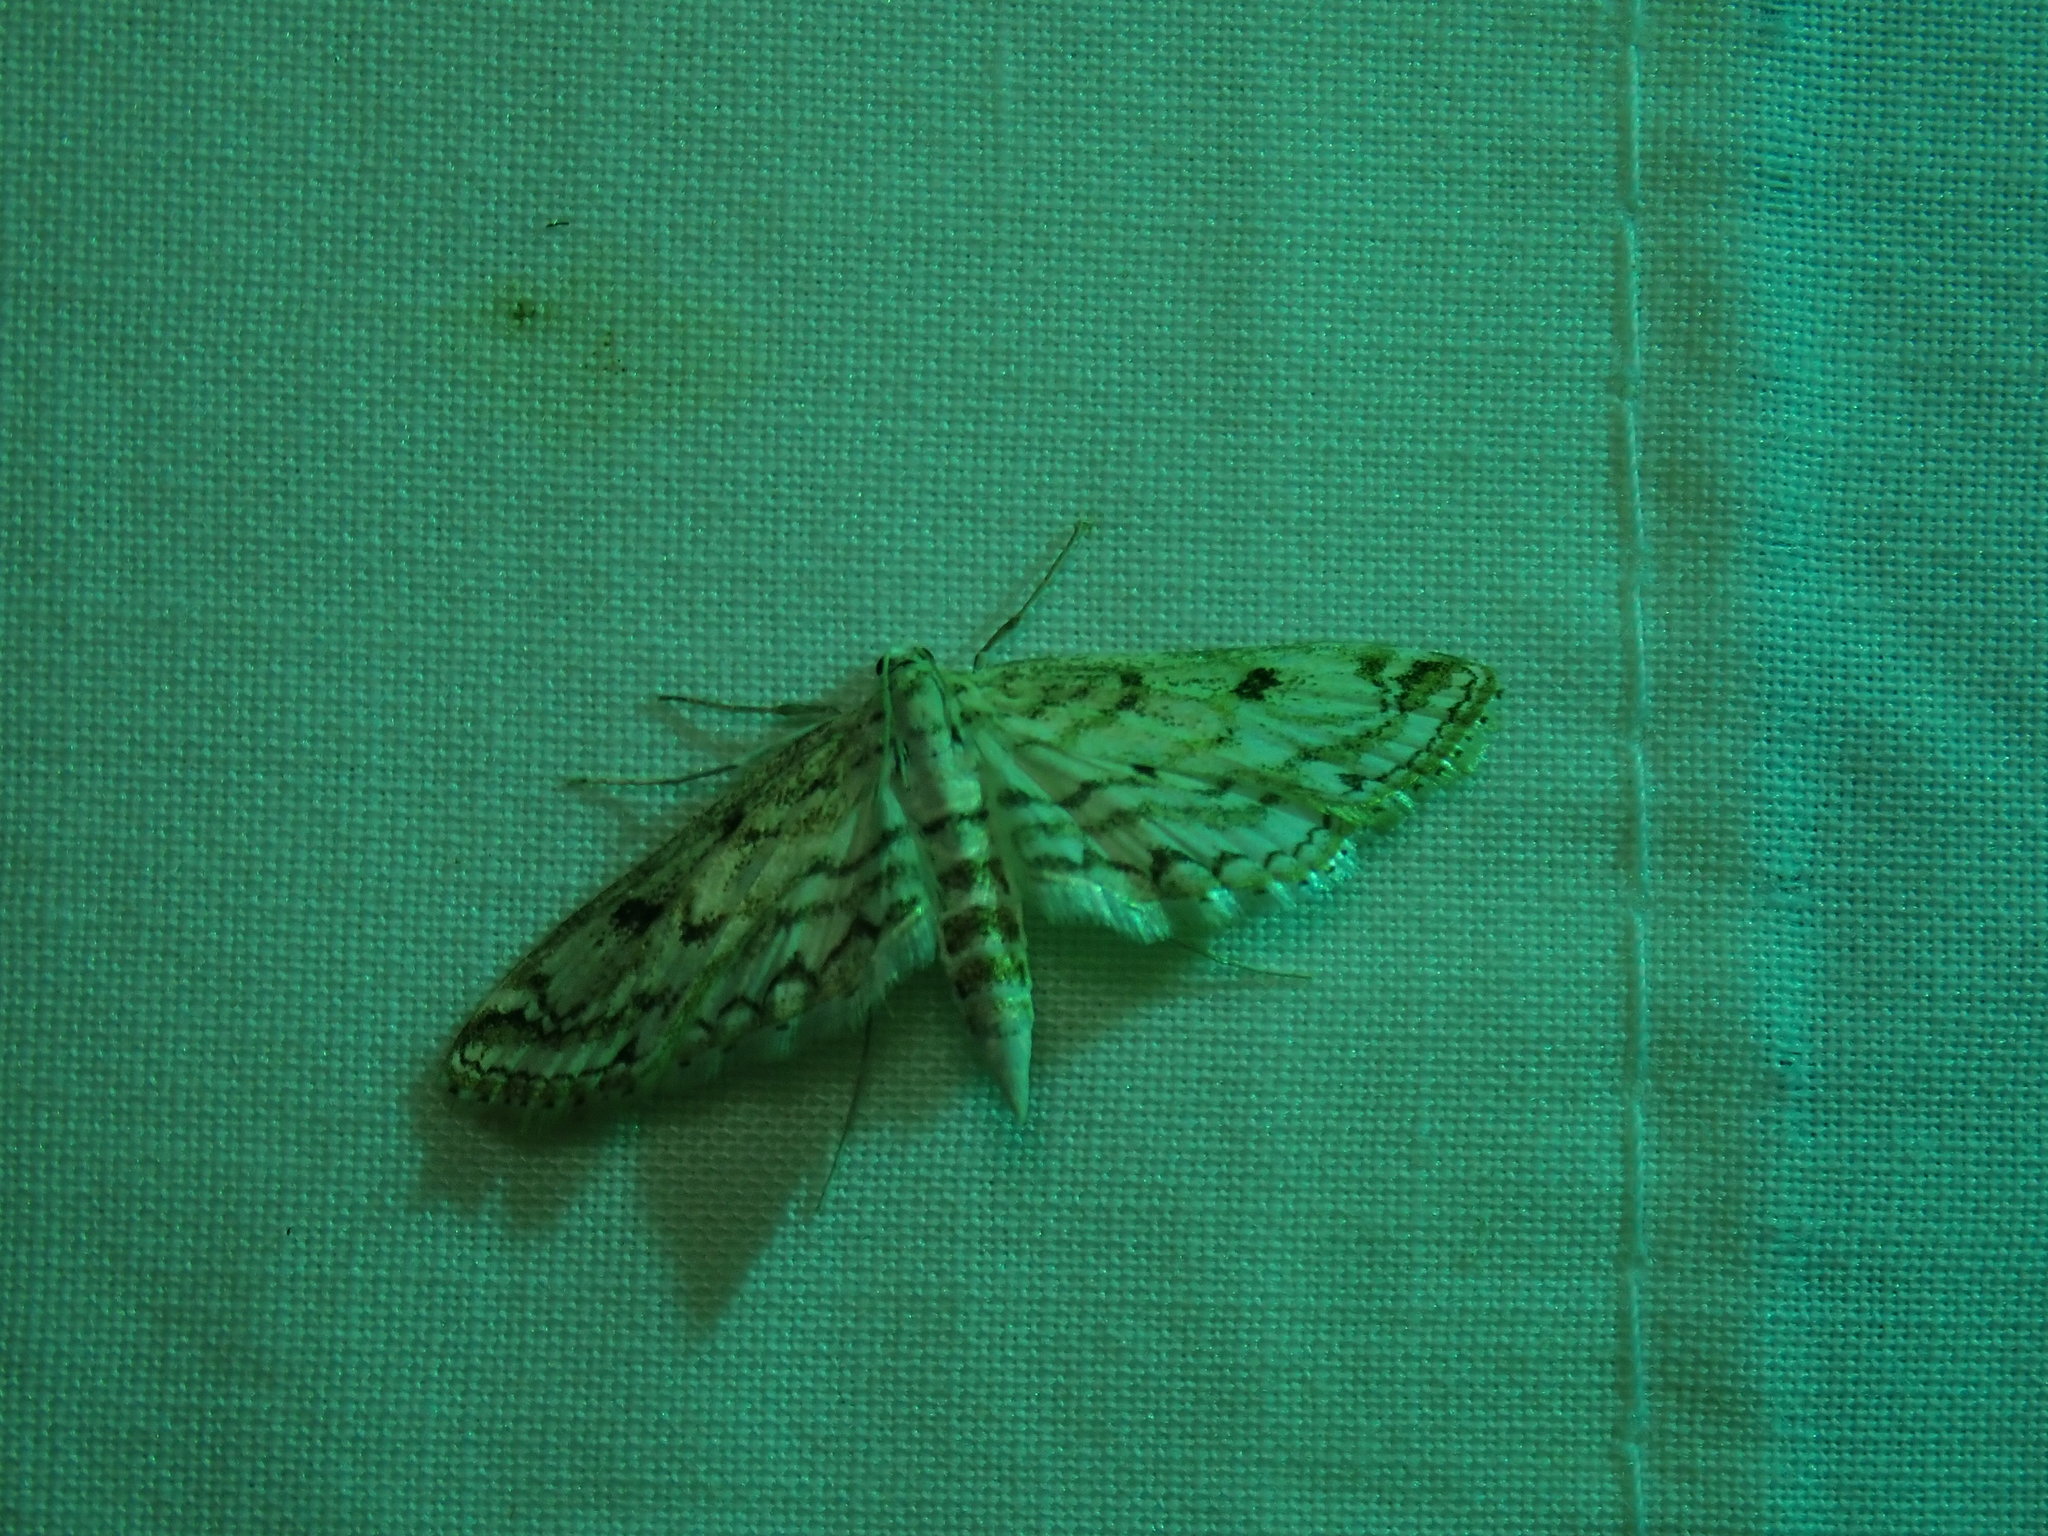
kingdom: Animalia
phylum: Arthropoda
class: Insecta
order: Lepidoptera
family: Crambidae
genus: Parapoynx
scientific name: Parapoynx allionealis
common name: Bladderwort casemaker
